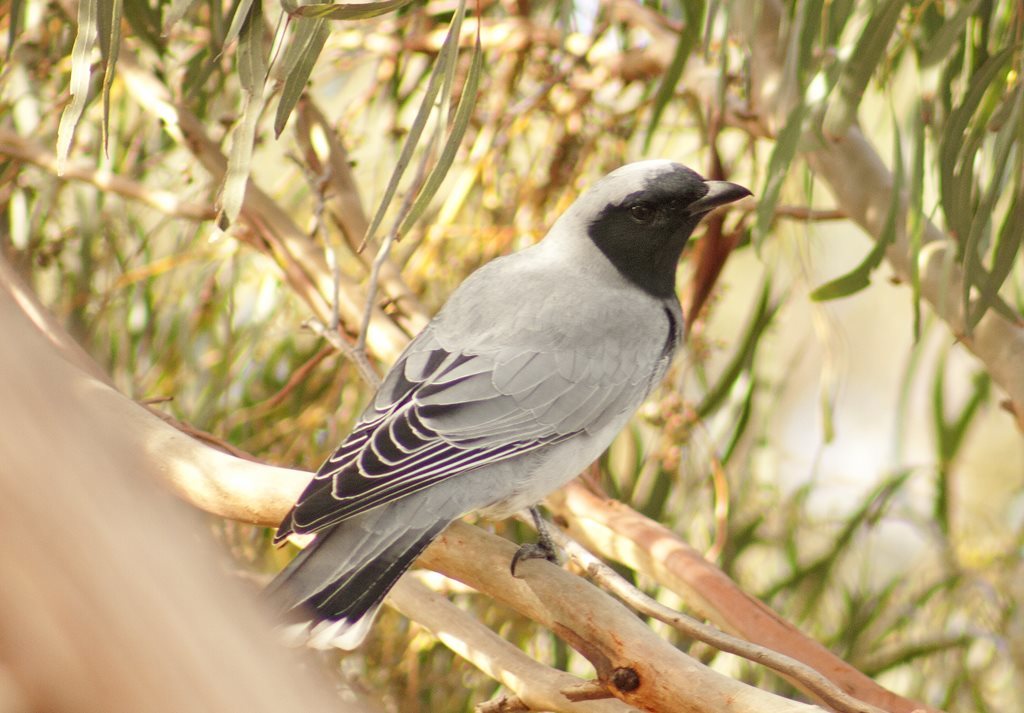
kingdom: Animalia
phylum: Chordata
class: Aves
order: Passeriformes
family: Campephagidae
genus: Coracina
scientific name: Coracina novaehollandiae
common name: Black-faced cuckooshrike
